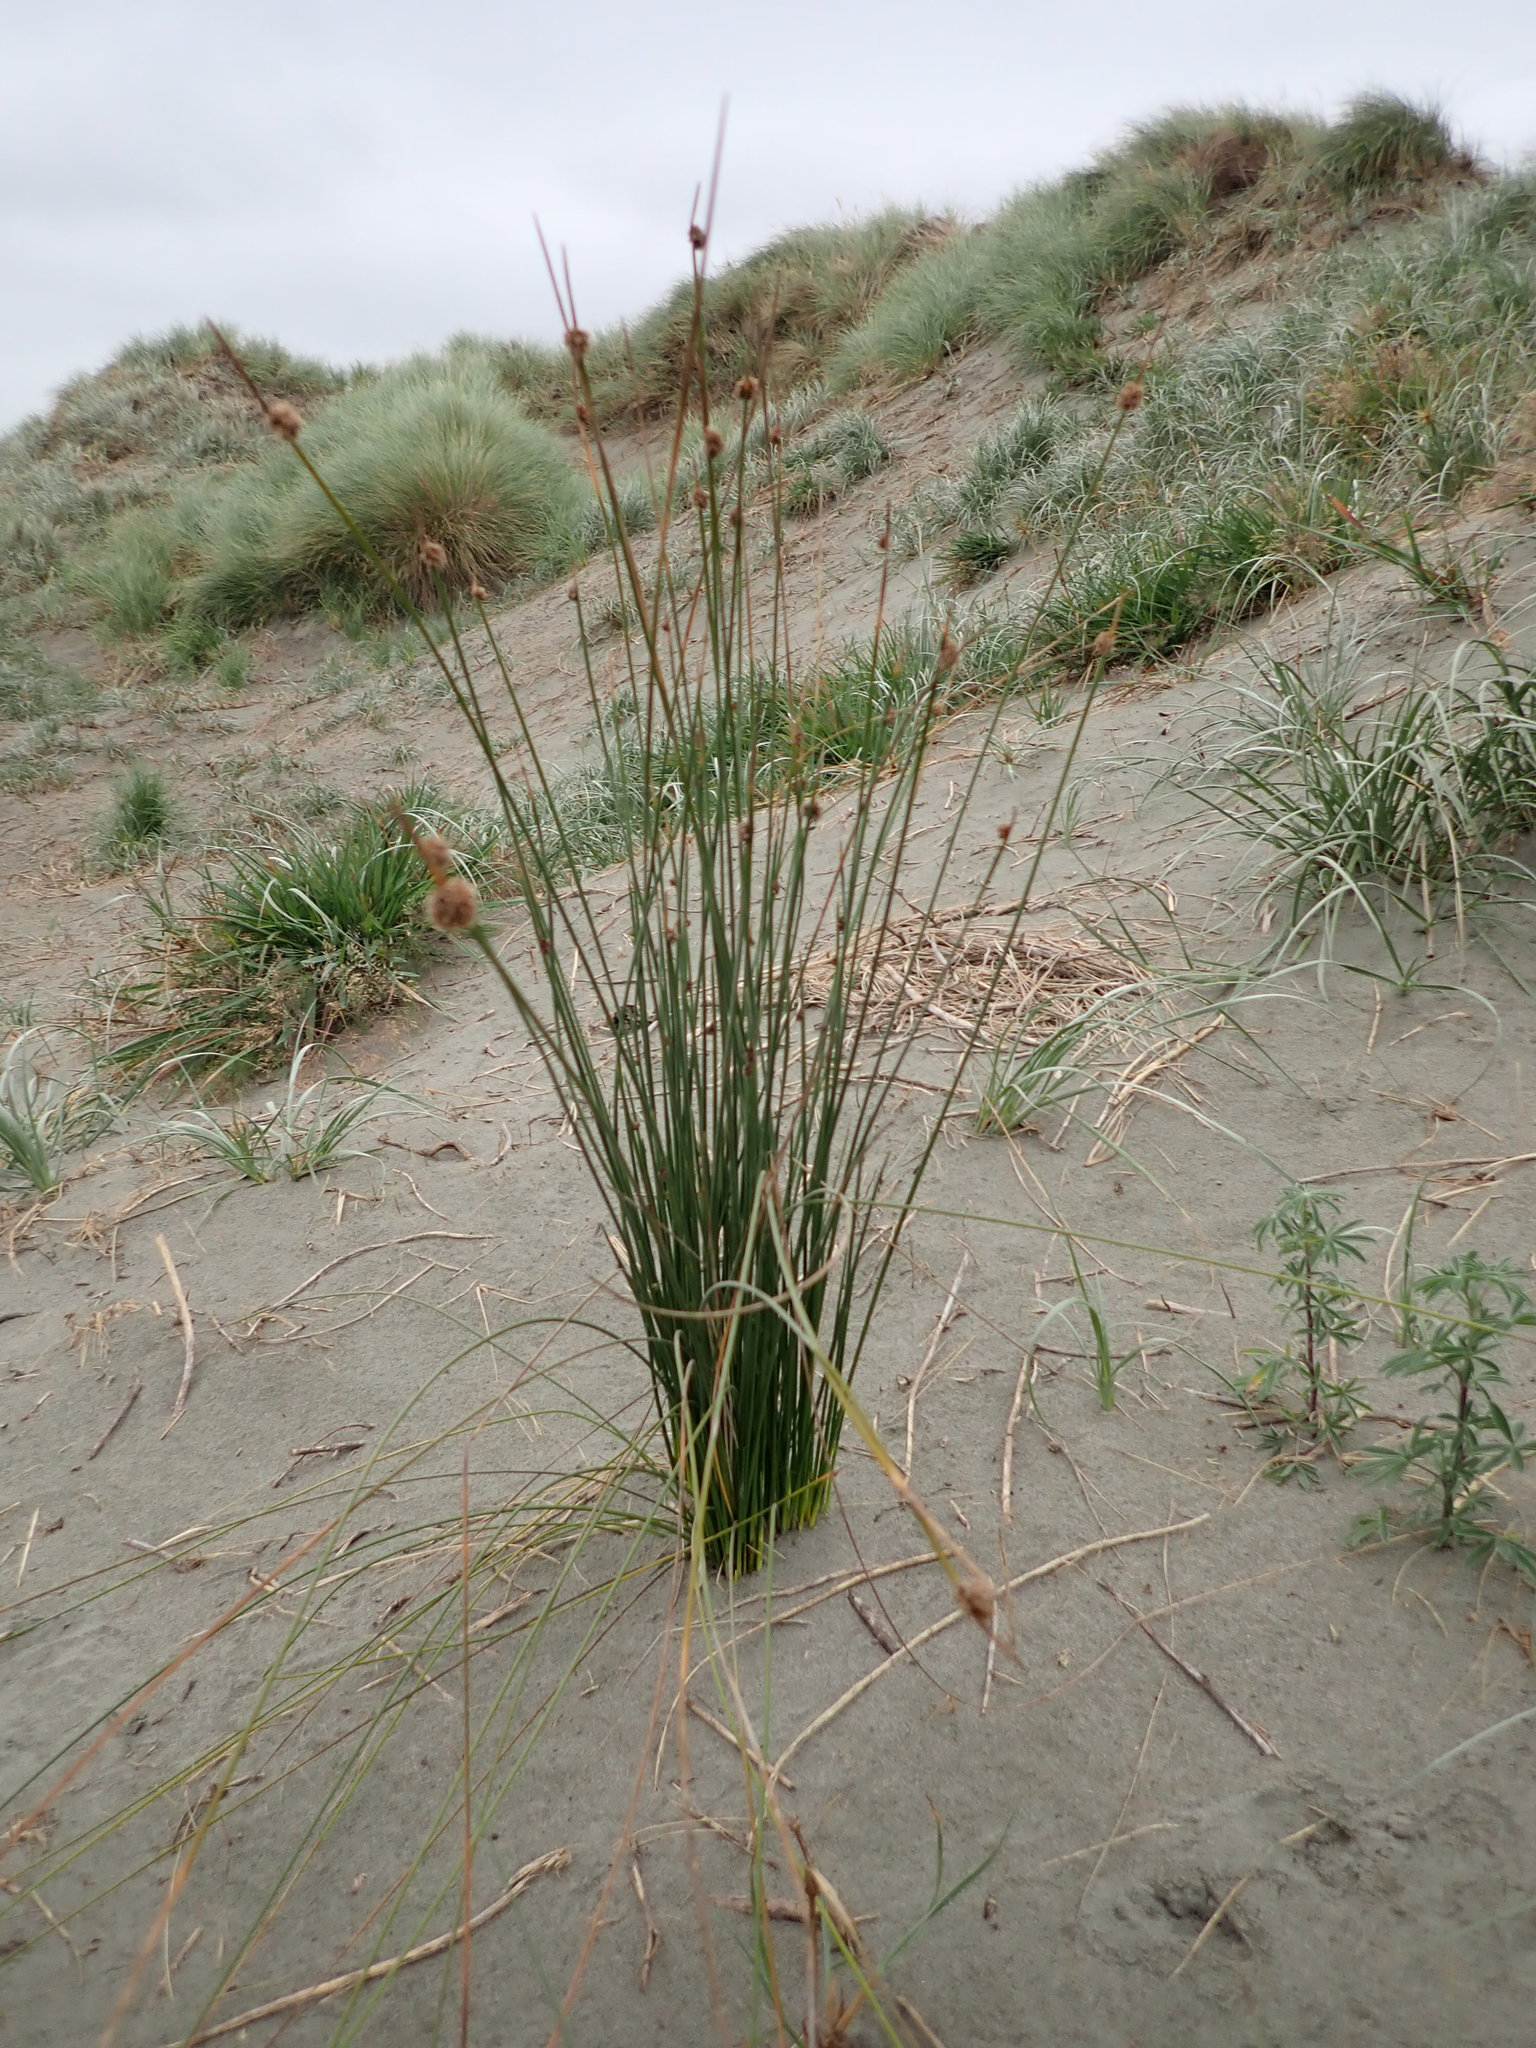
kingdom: Plantae
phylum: Tracheophyta
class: Liliopsida
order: Poales
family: Cyperaceae
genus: Ficinia
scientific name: Ficinia nodosa
